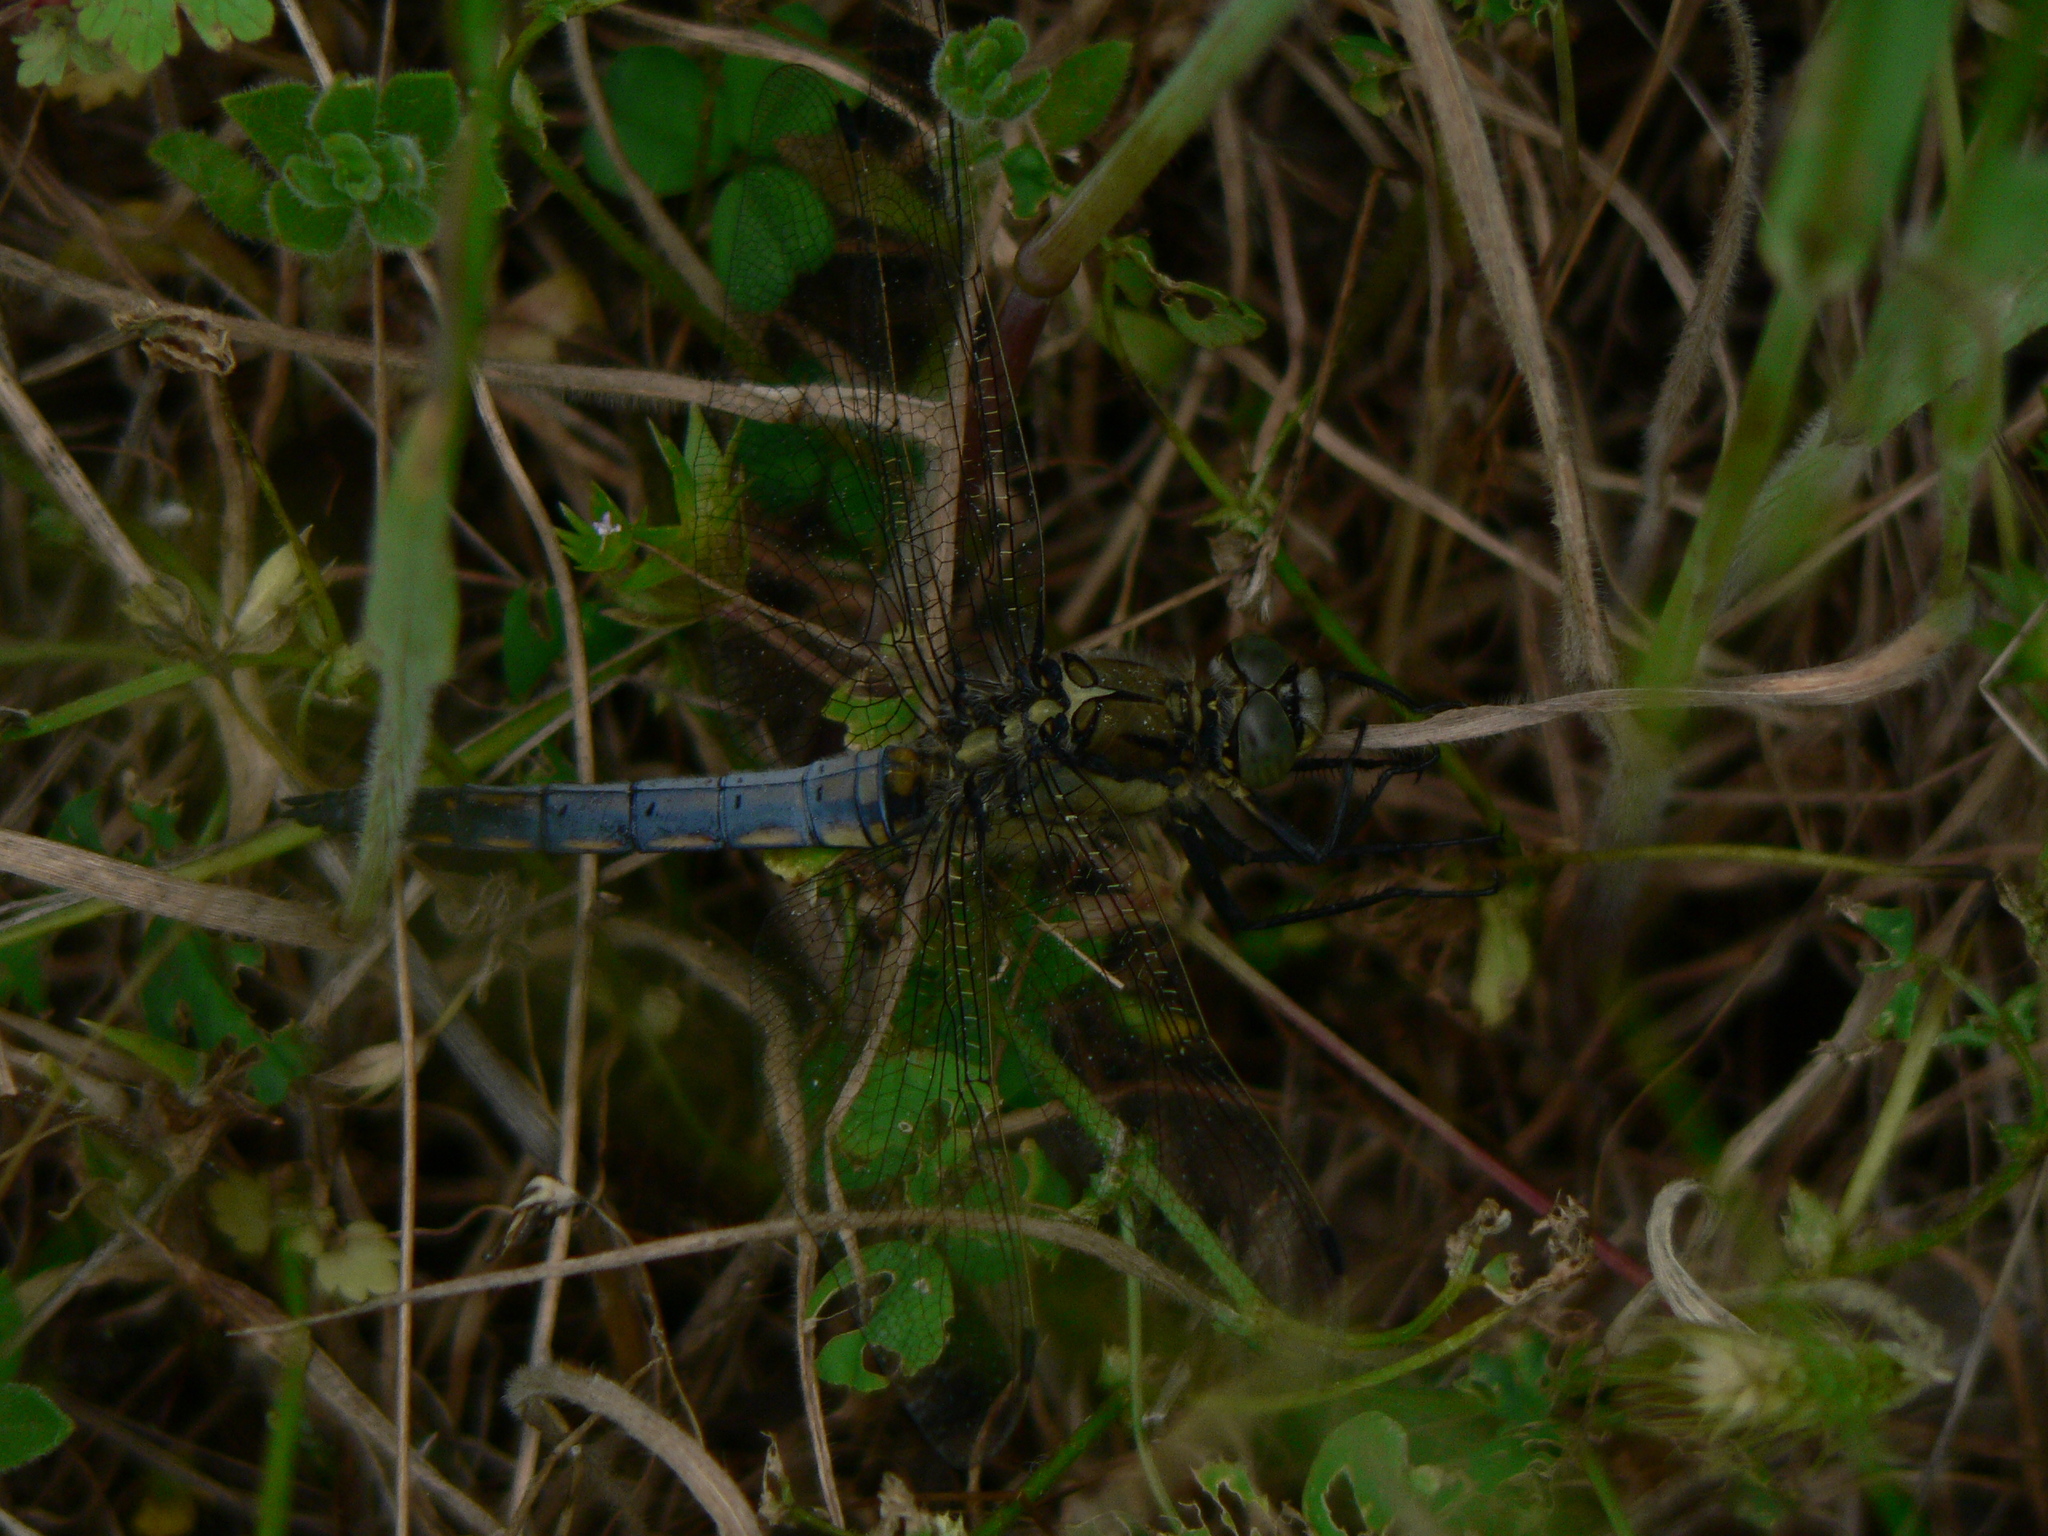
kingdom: Animalia
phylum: Arthropoda
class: Insecta
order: Odonata
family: Libellulidae
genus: Orthetrum
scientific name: Orthetrum cancellatum
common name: Black-tailed skimmer
